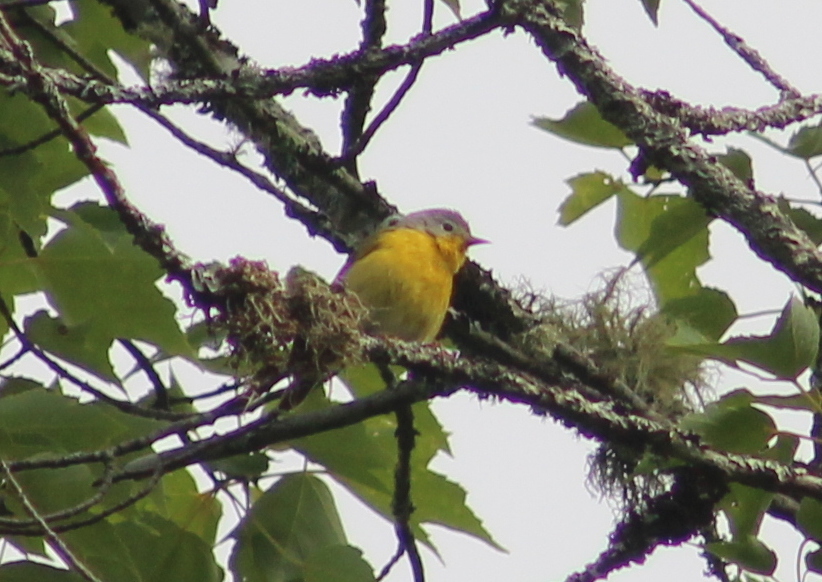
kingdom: Animalia
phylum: Chordata
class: Aves
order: Passeriformes
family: Parulidae
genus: Leiothlypis
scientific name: Leiothlypis ruficapilla
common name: Nashville warbler
